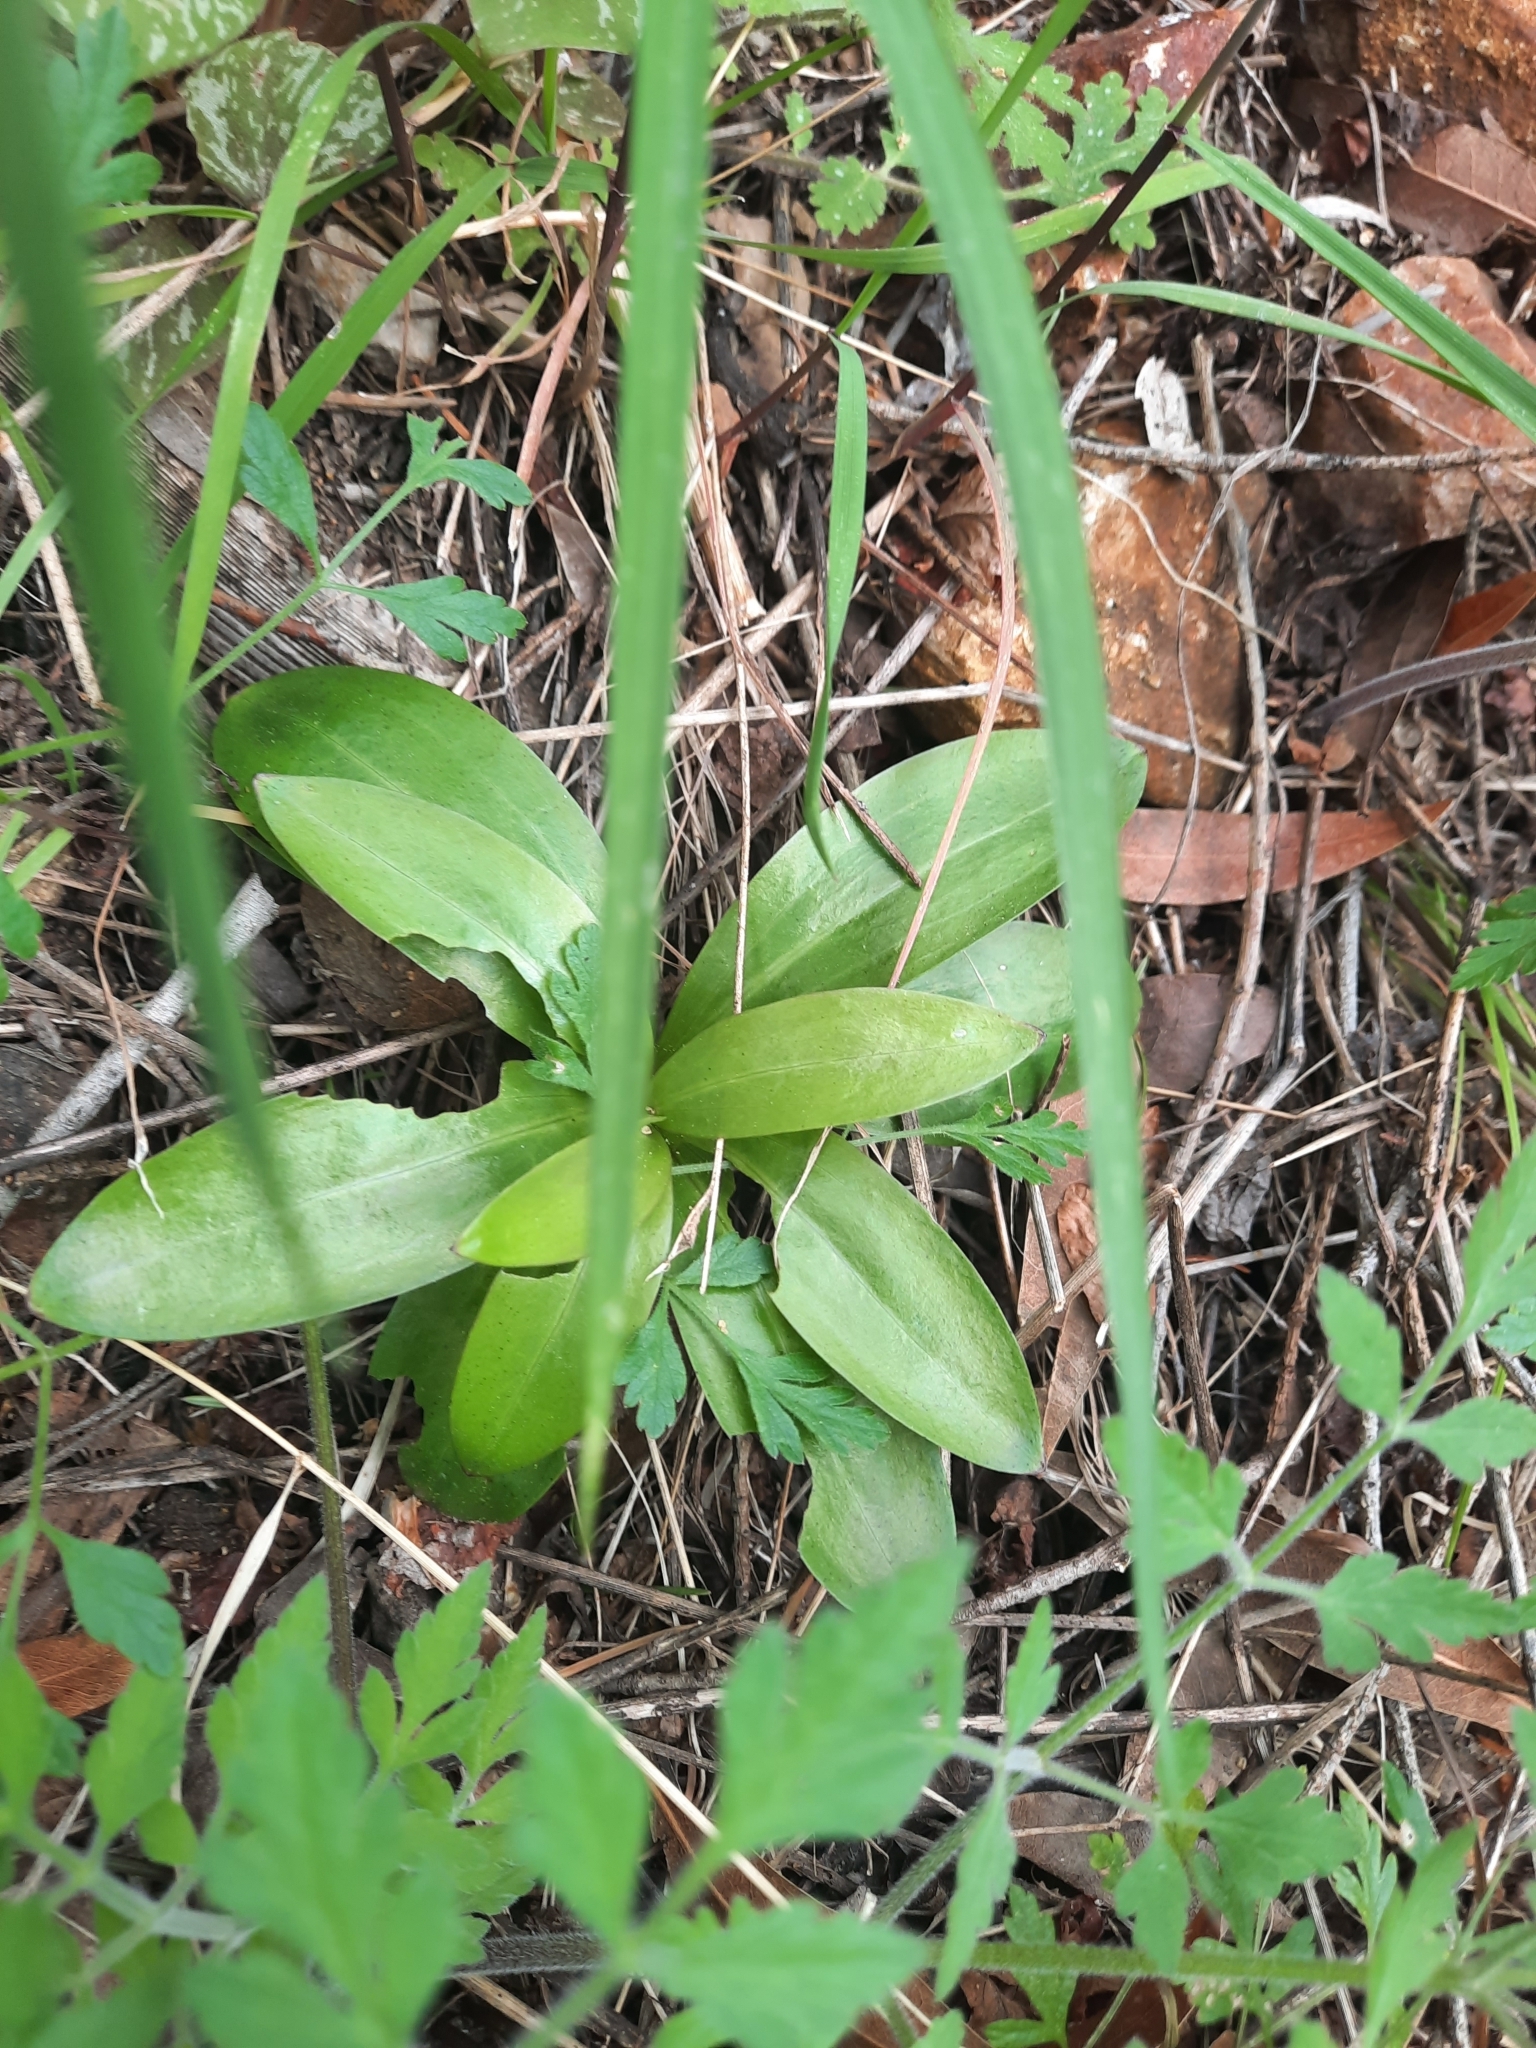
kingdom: Plantae
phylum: Tracheophyta
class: Liliopsida
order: Liliales
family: Liliaceae
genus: Lilium
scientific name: Lilium humboldtii
